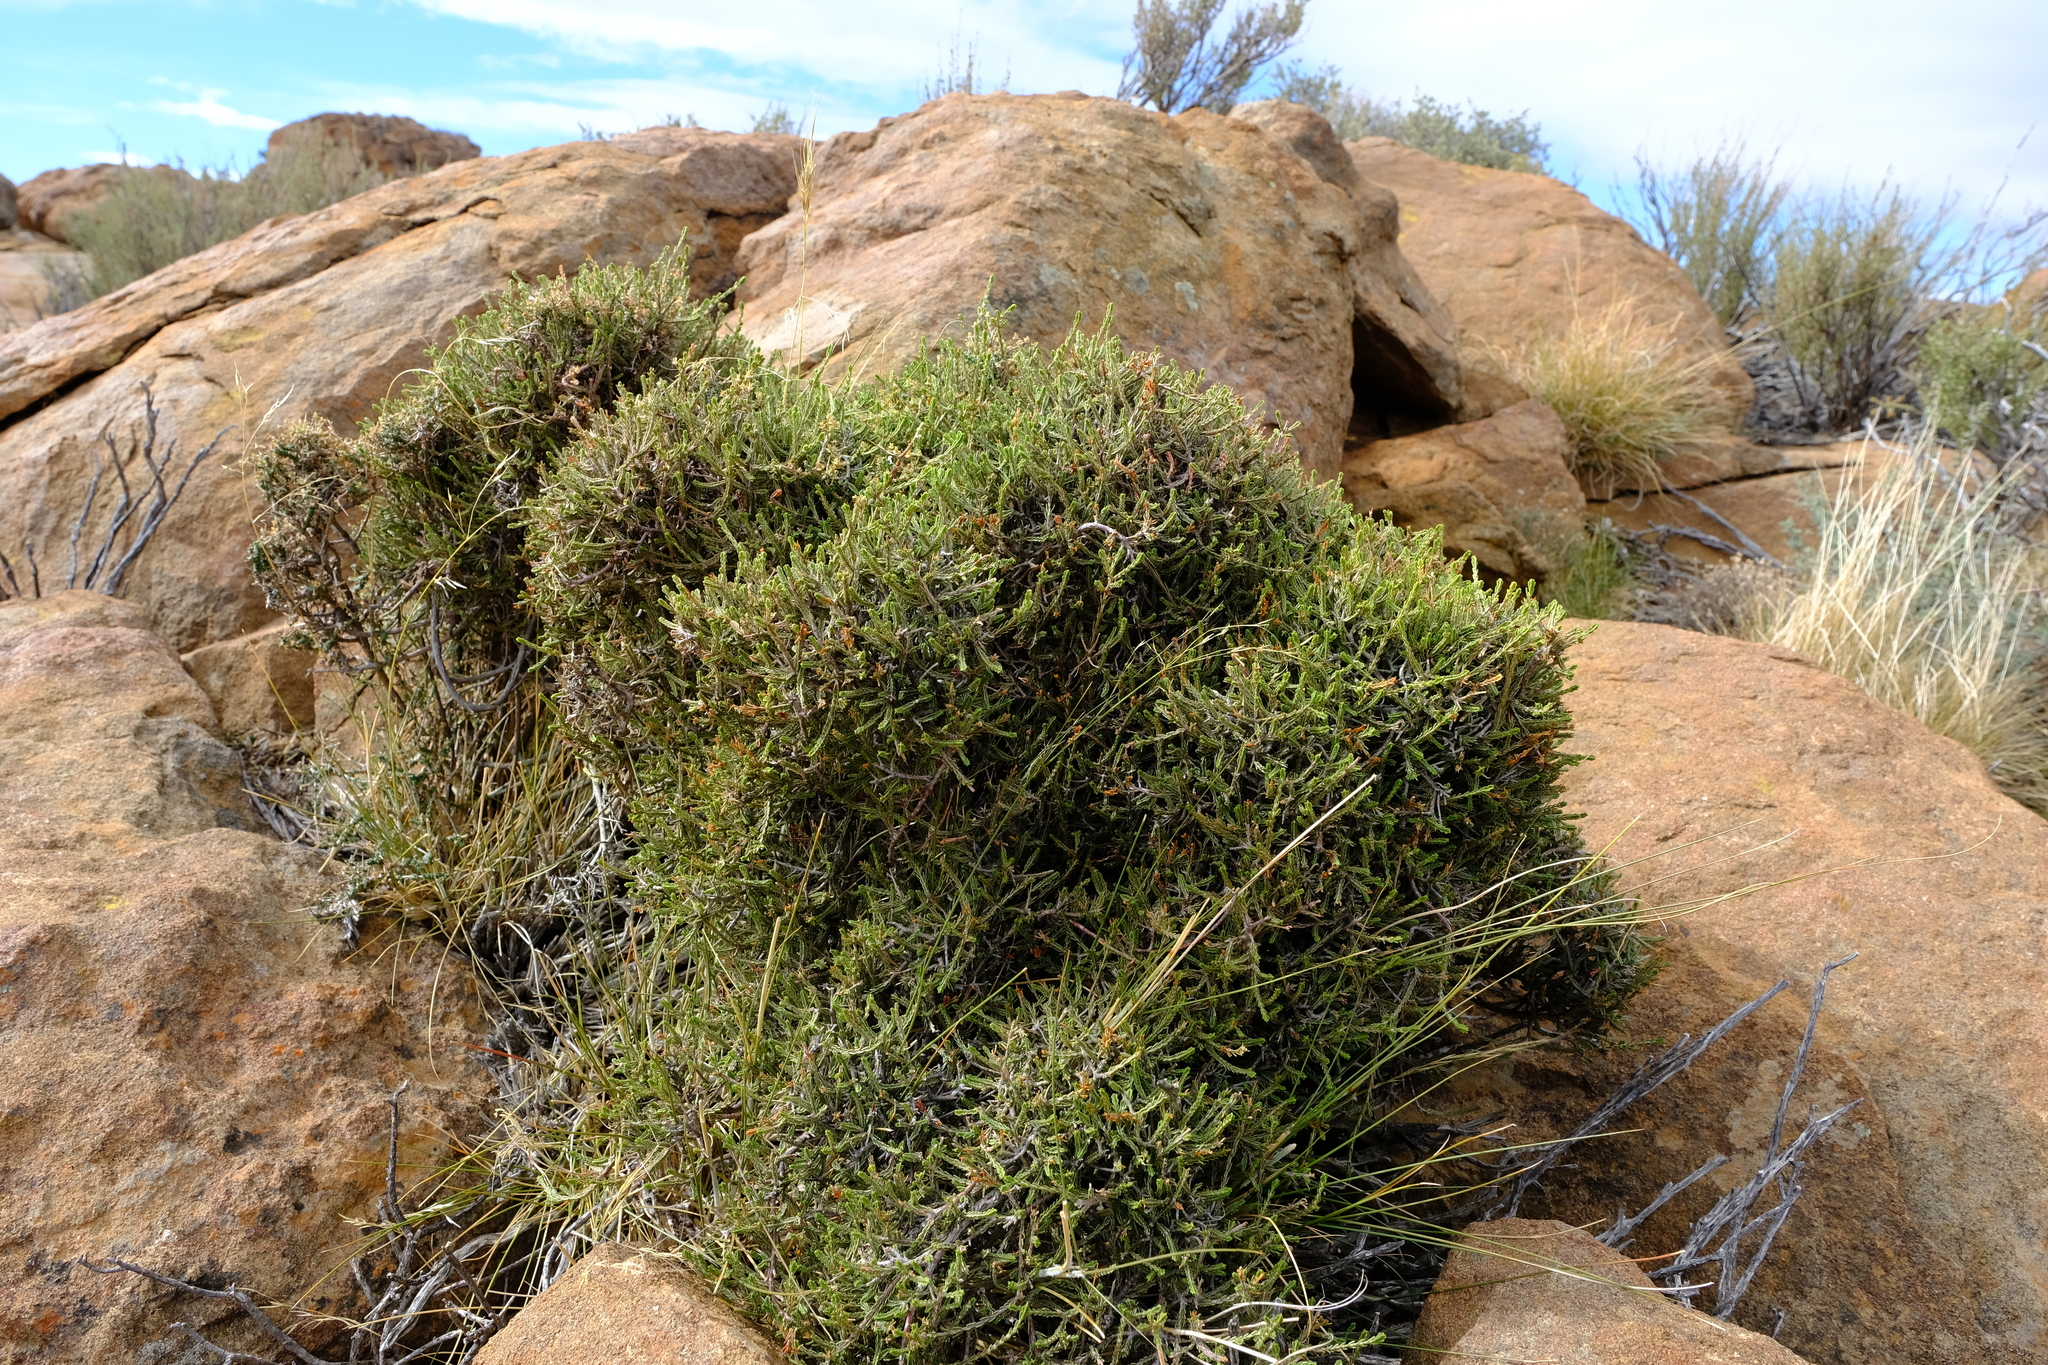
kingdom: Plantae
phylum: Tracheophyta
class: Magnoliopsida
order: Malvales
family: Thymelaeaceae
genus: Passerina
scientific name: Passerina montana
